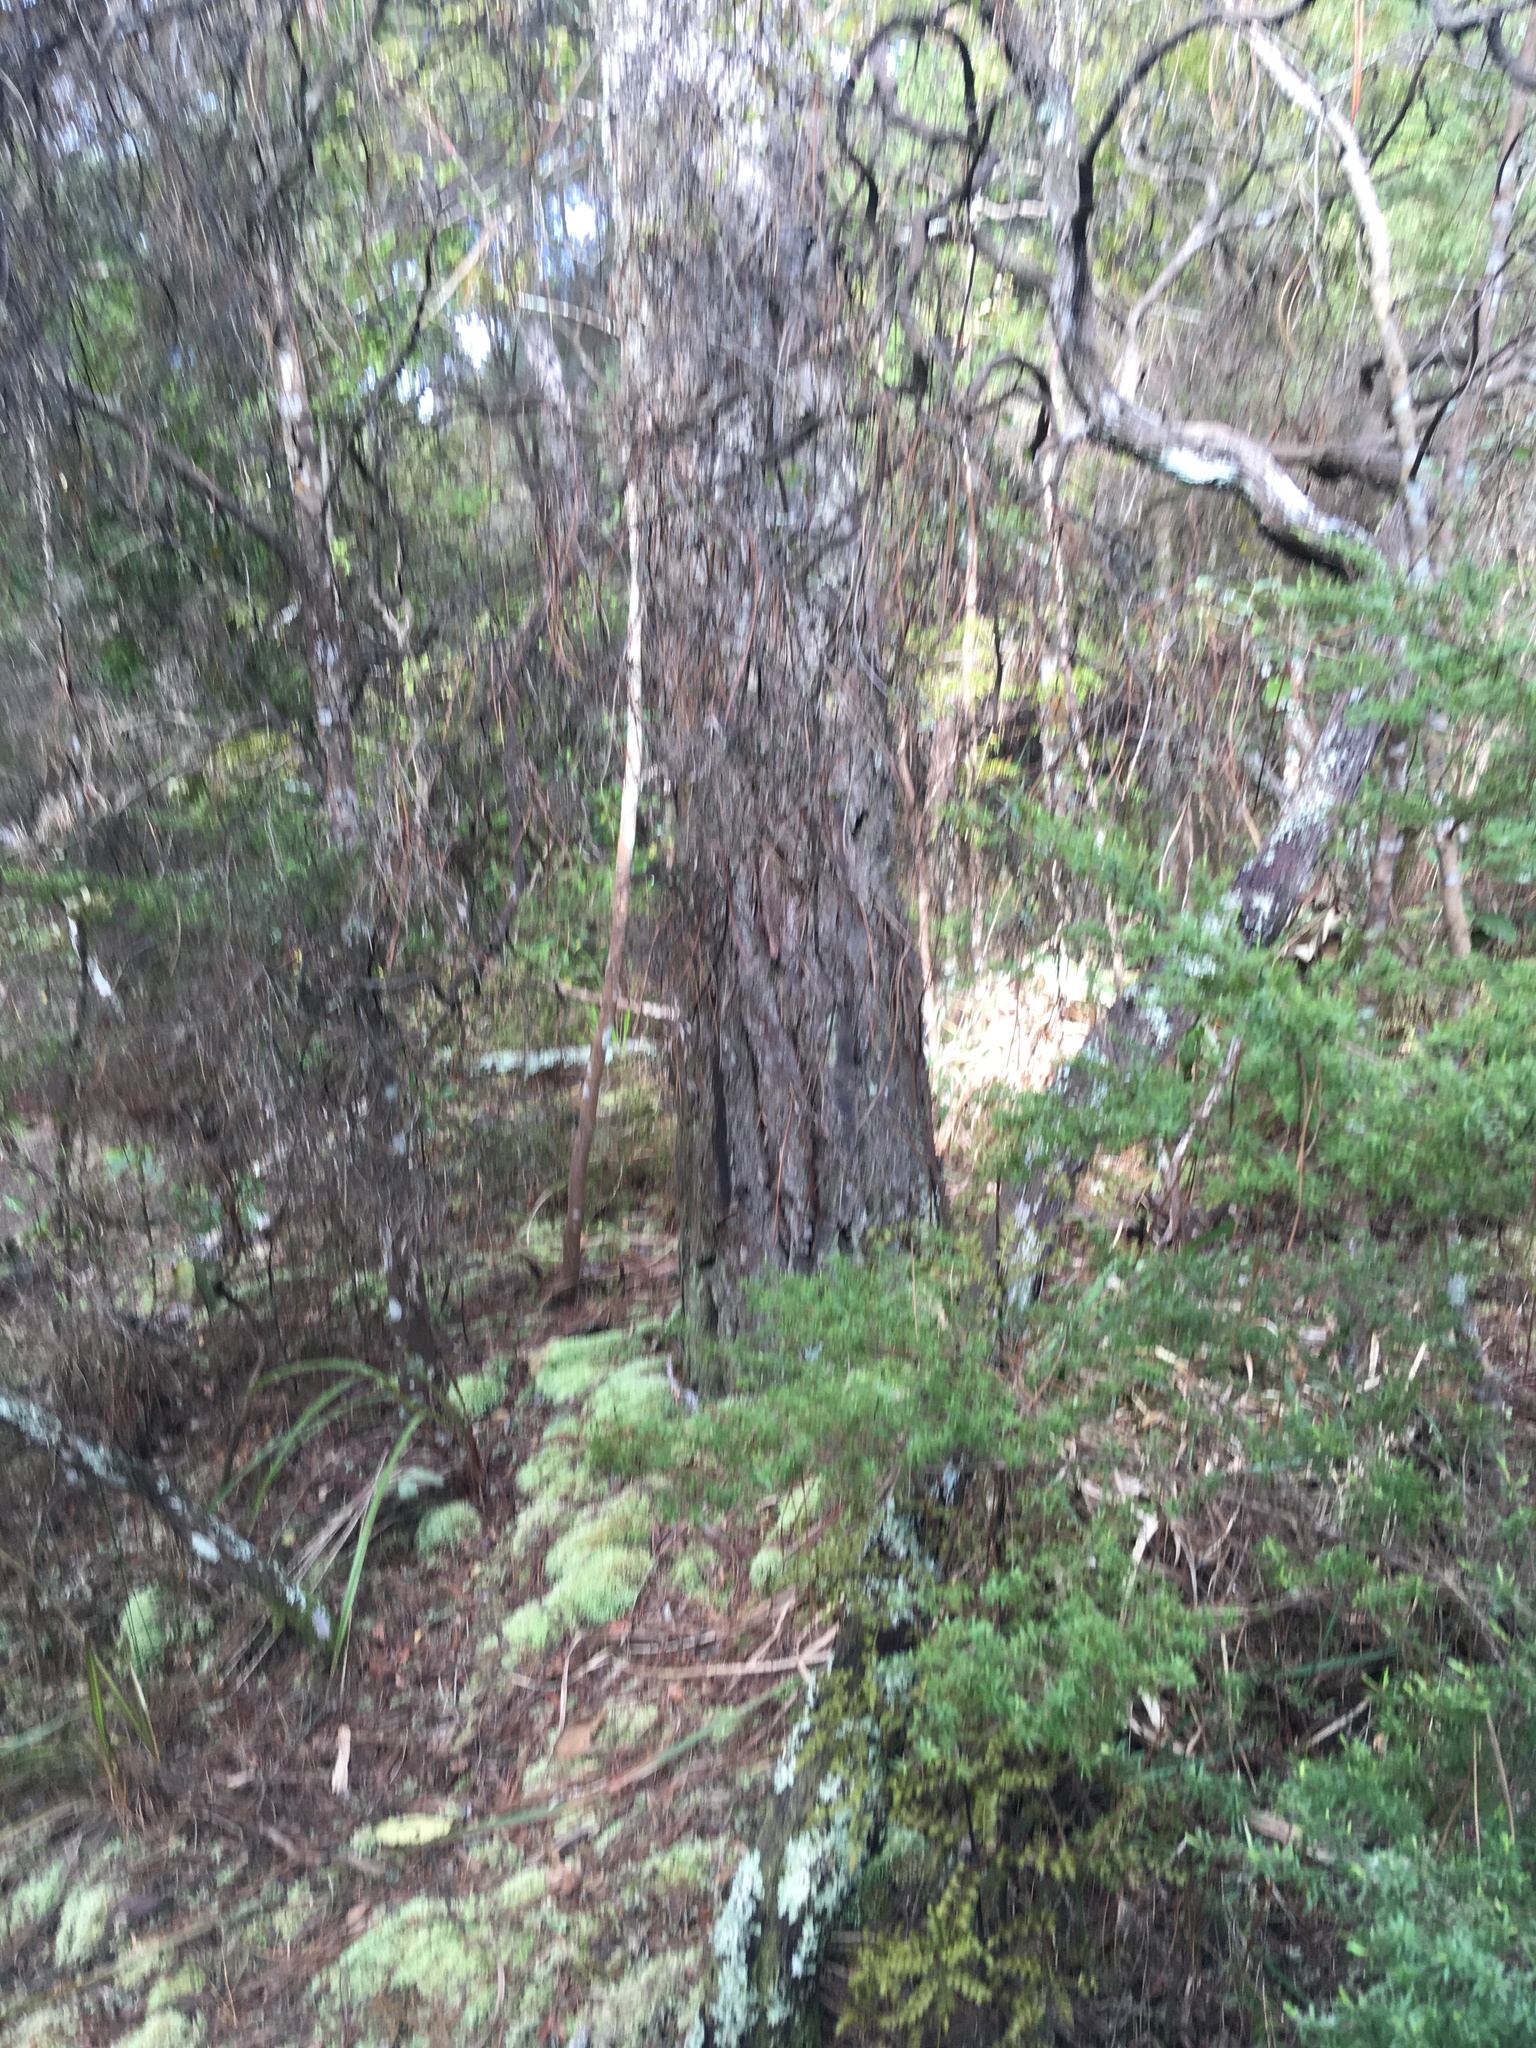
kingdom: Plantae
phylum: Tracheophyta
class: Pinopsida
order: Pinales
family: Phyllocladaceae
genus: Phyllocladus
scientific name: Phyllocladus trichomanoides
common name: Celery pine
